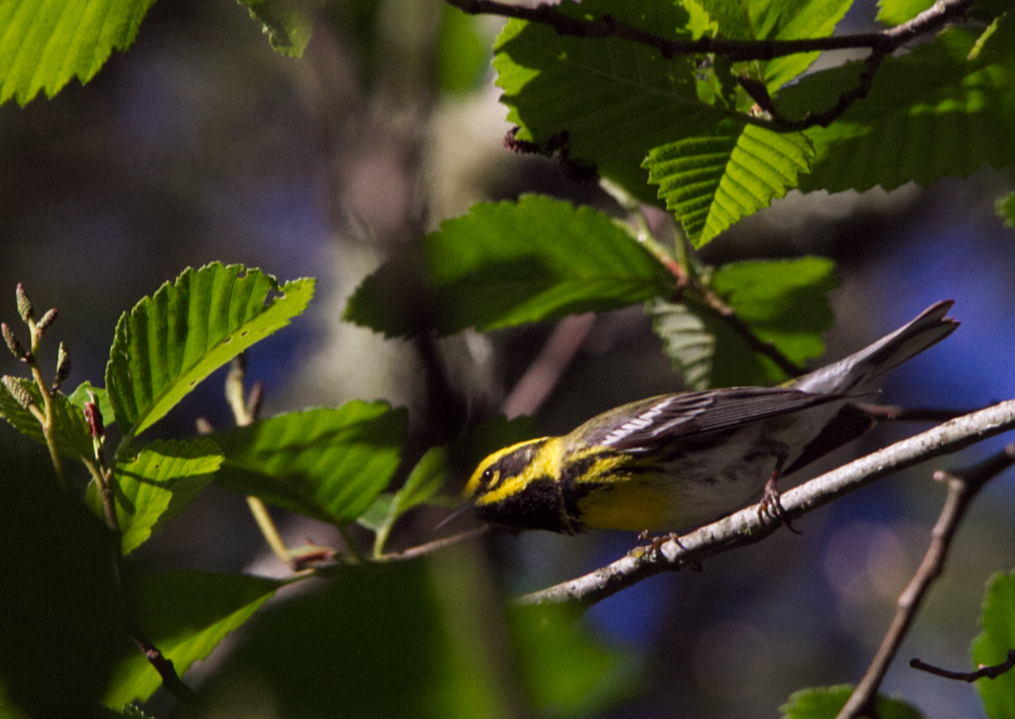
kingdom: Animalia
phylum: Chordata
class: Aves
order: Passeriformes
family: Parulidae
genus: Setophaga
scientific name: Setophaga townsendi
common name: Townsend's warbler
